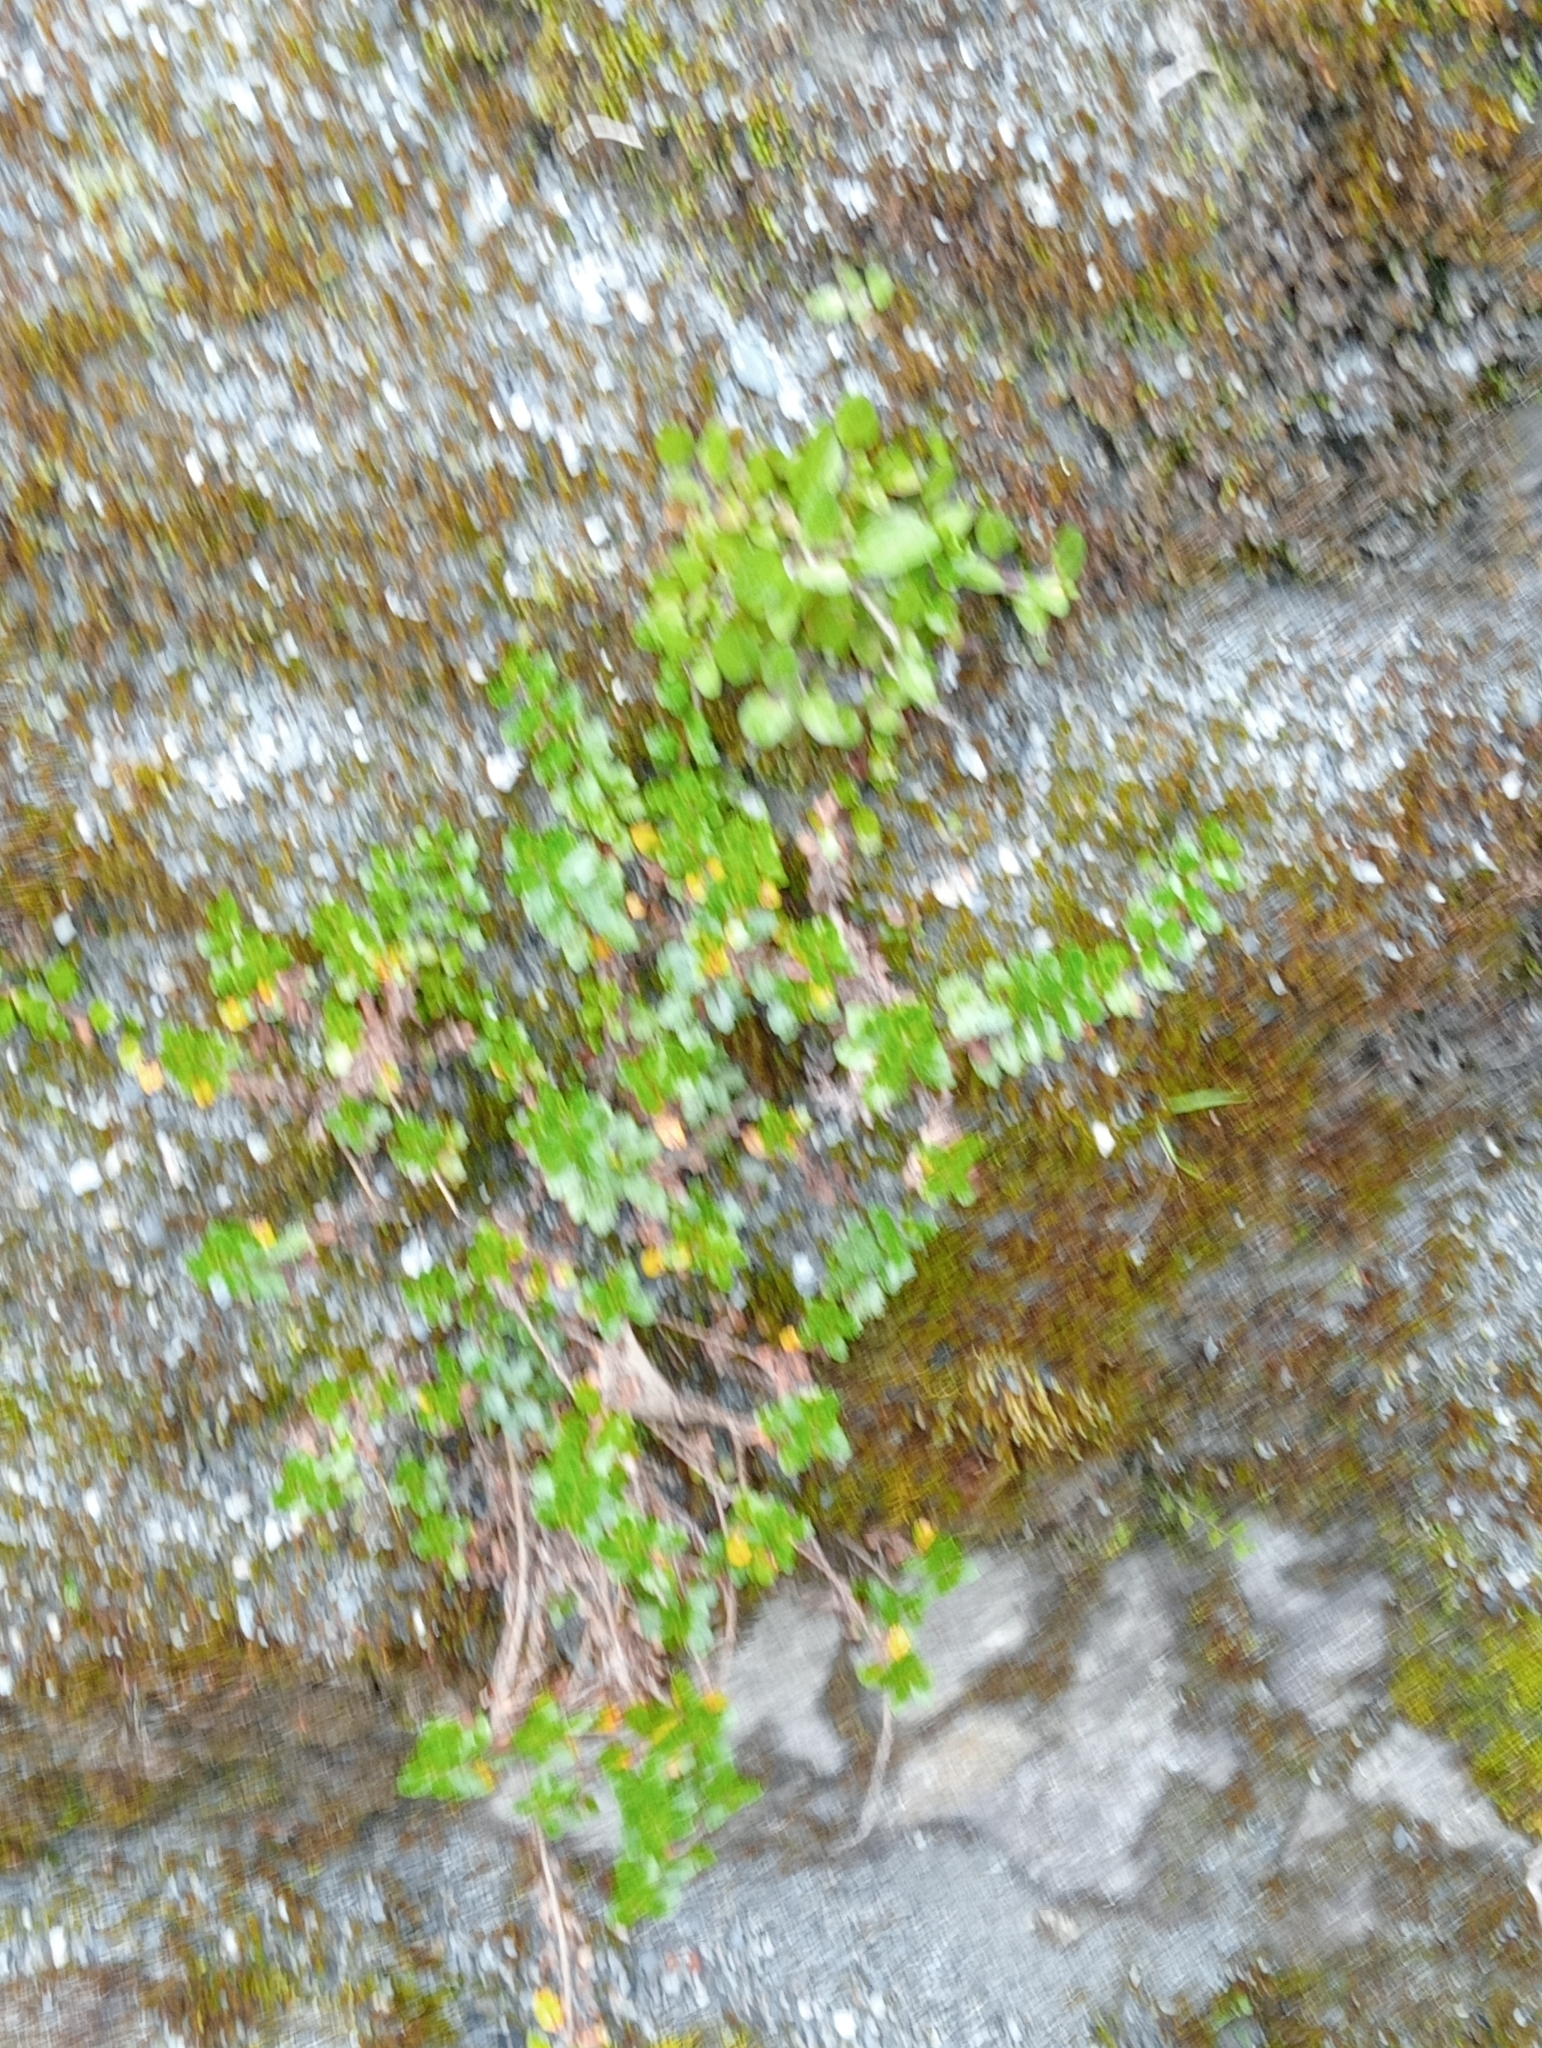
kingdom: Plantae
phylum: Tracheophyta
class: Magnoliopsida
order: Lamiales
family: Plantaginaceae
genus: Veronica
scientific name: Veronica lyallii
